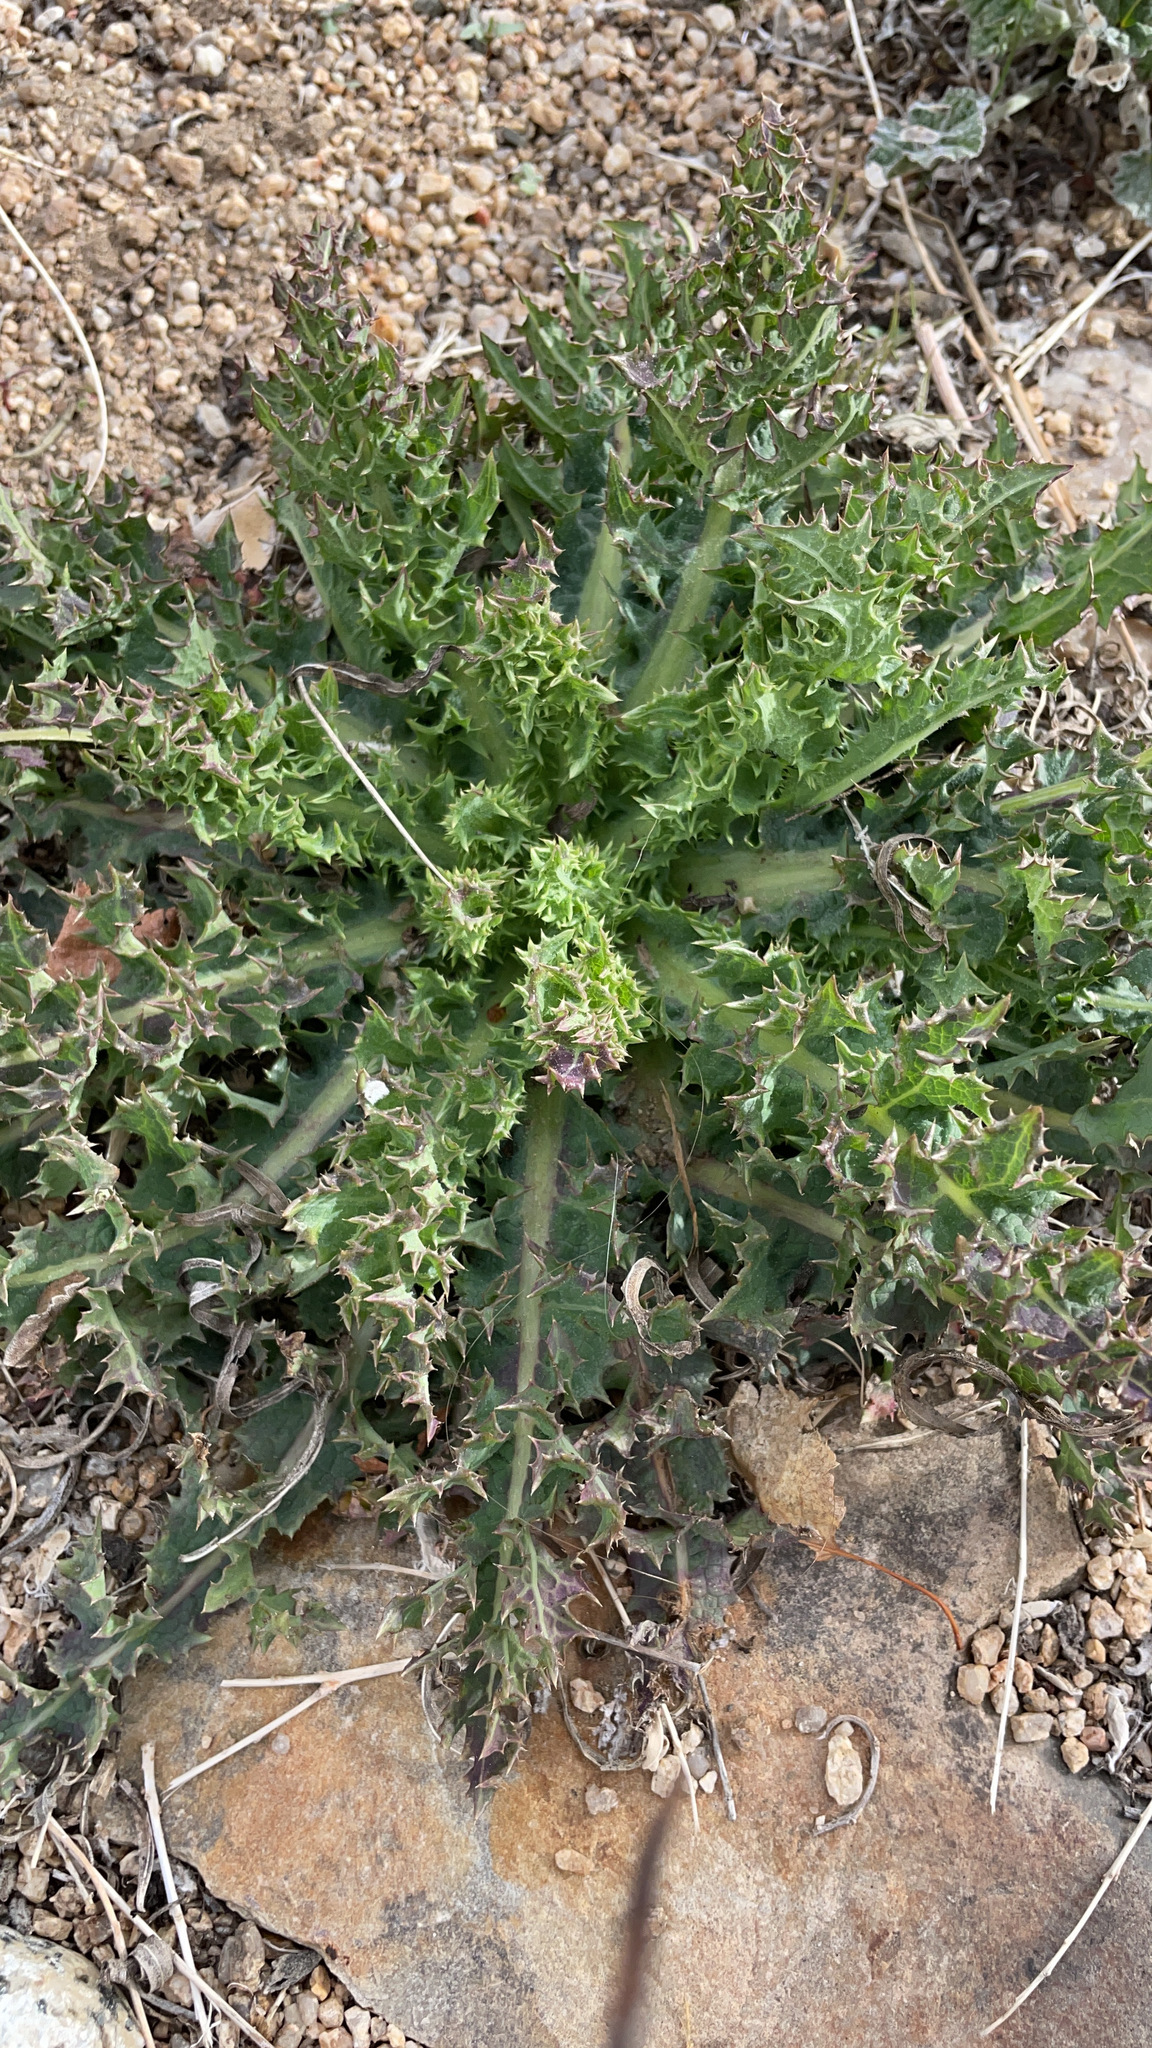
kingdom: Plantae
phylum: Tracheophyta
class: Magnoliopsida
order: Asterales
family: Asteraceae
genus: Sonchus
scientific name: Sonchus asper
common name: Prickly sow-thistle
